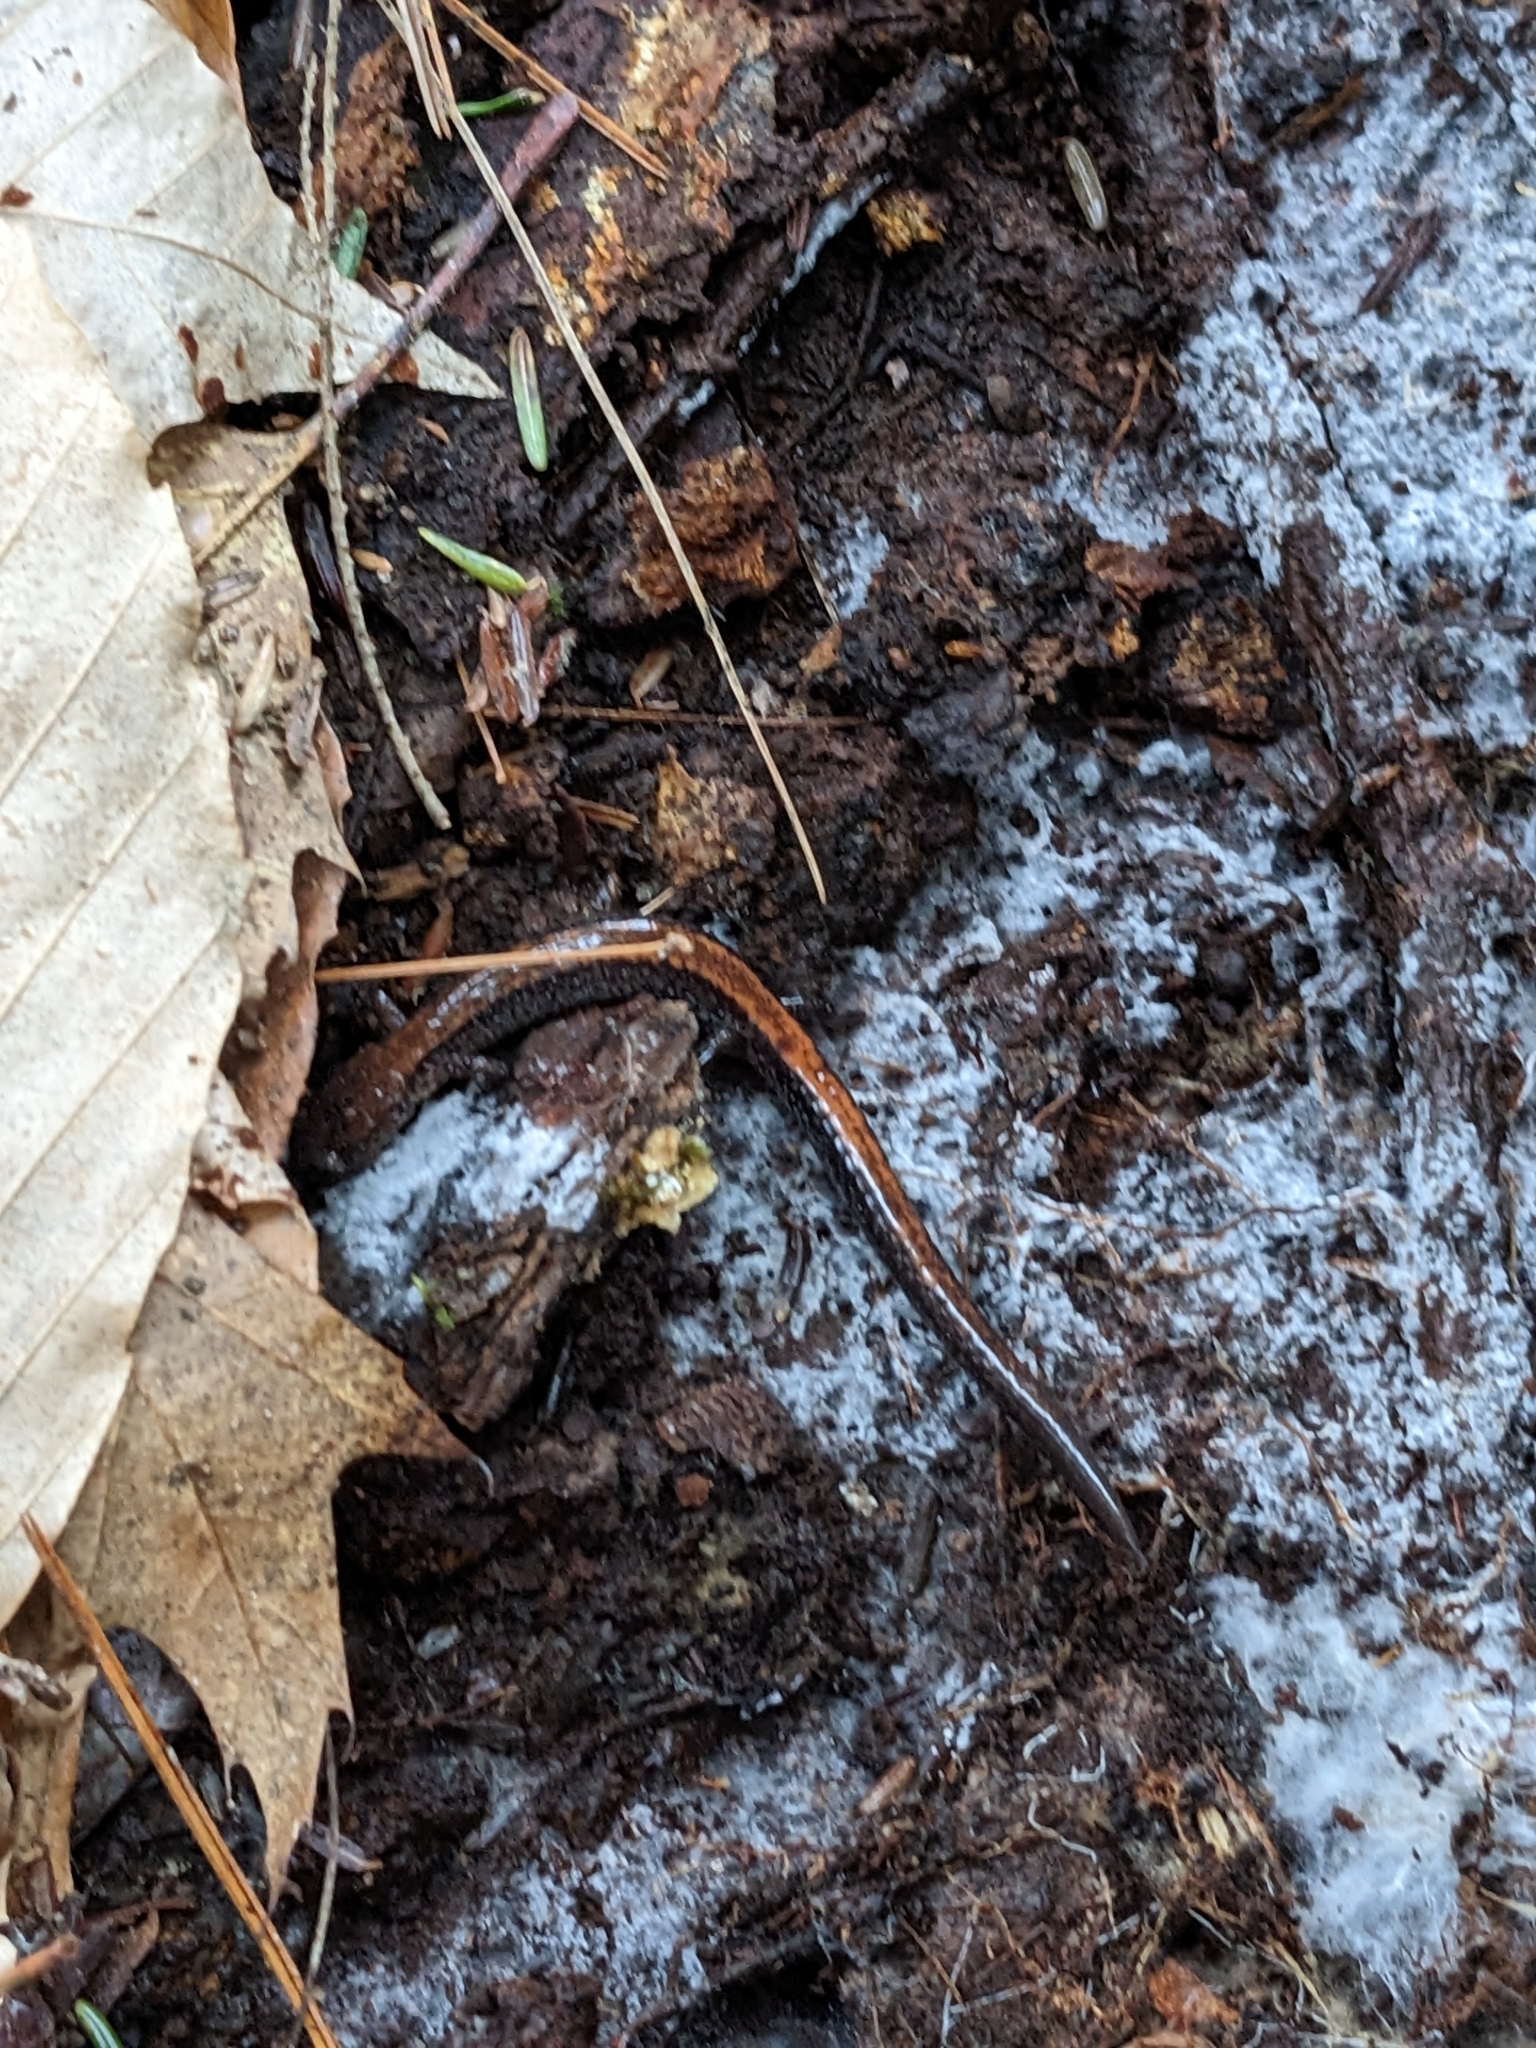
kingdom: Animalia
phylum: Chordata
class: Amphibia
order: Caudata
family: Plethodontidae
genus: Plethodon
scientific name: Plethodon cinereus
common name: Redback salamander
